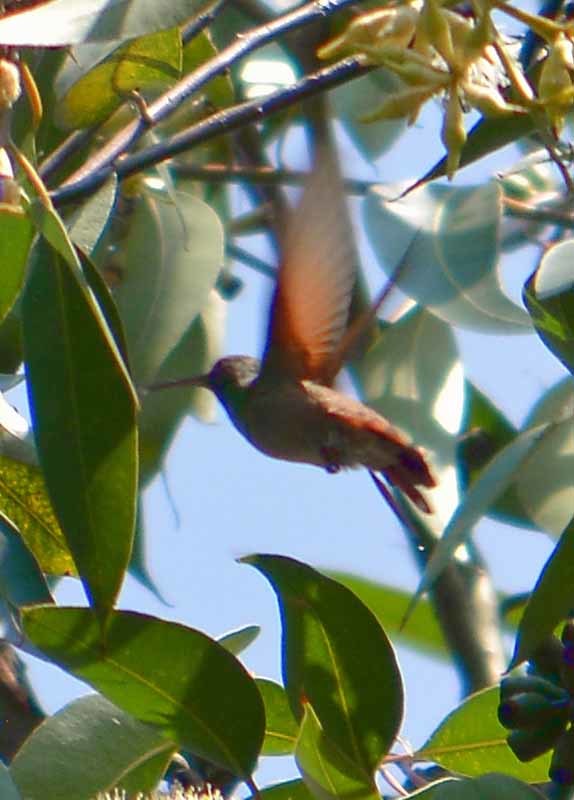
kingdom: Animalia
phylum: Chordata
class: Aves
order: Apodiformes
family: Trochilidae
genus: Saucerottia
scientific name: Saucerottia beryllina
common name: Berylline hummingbird
